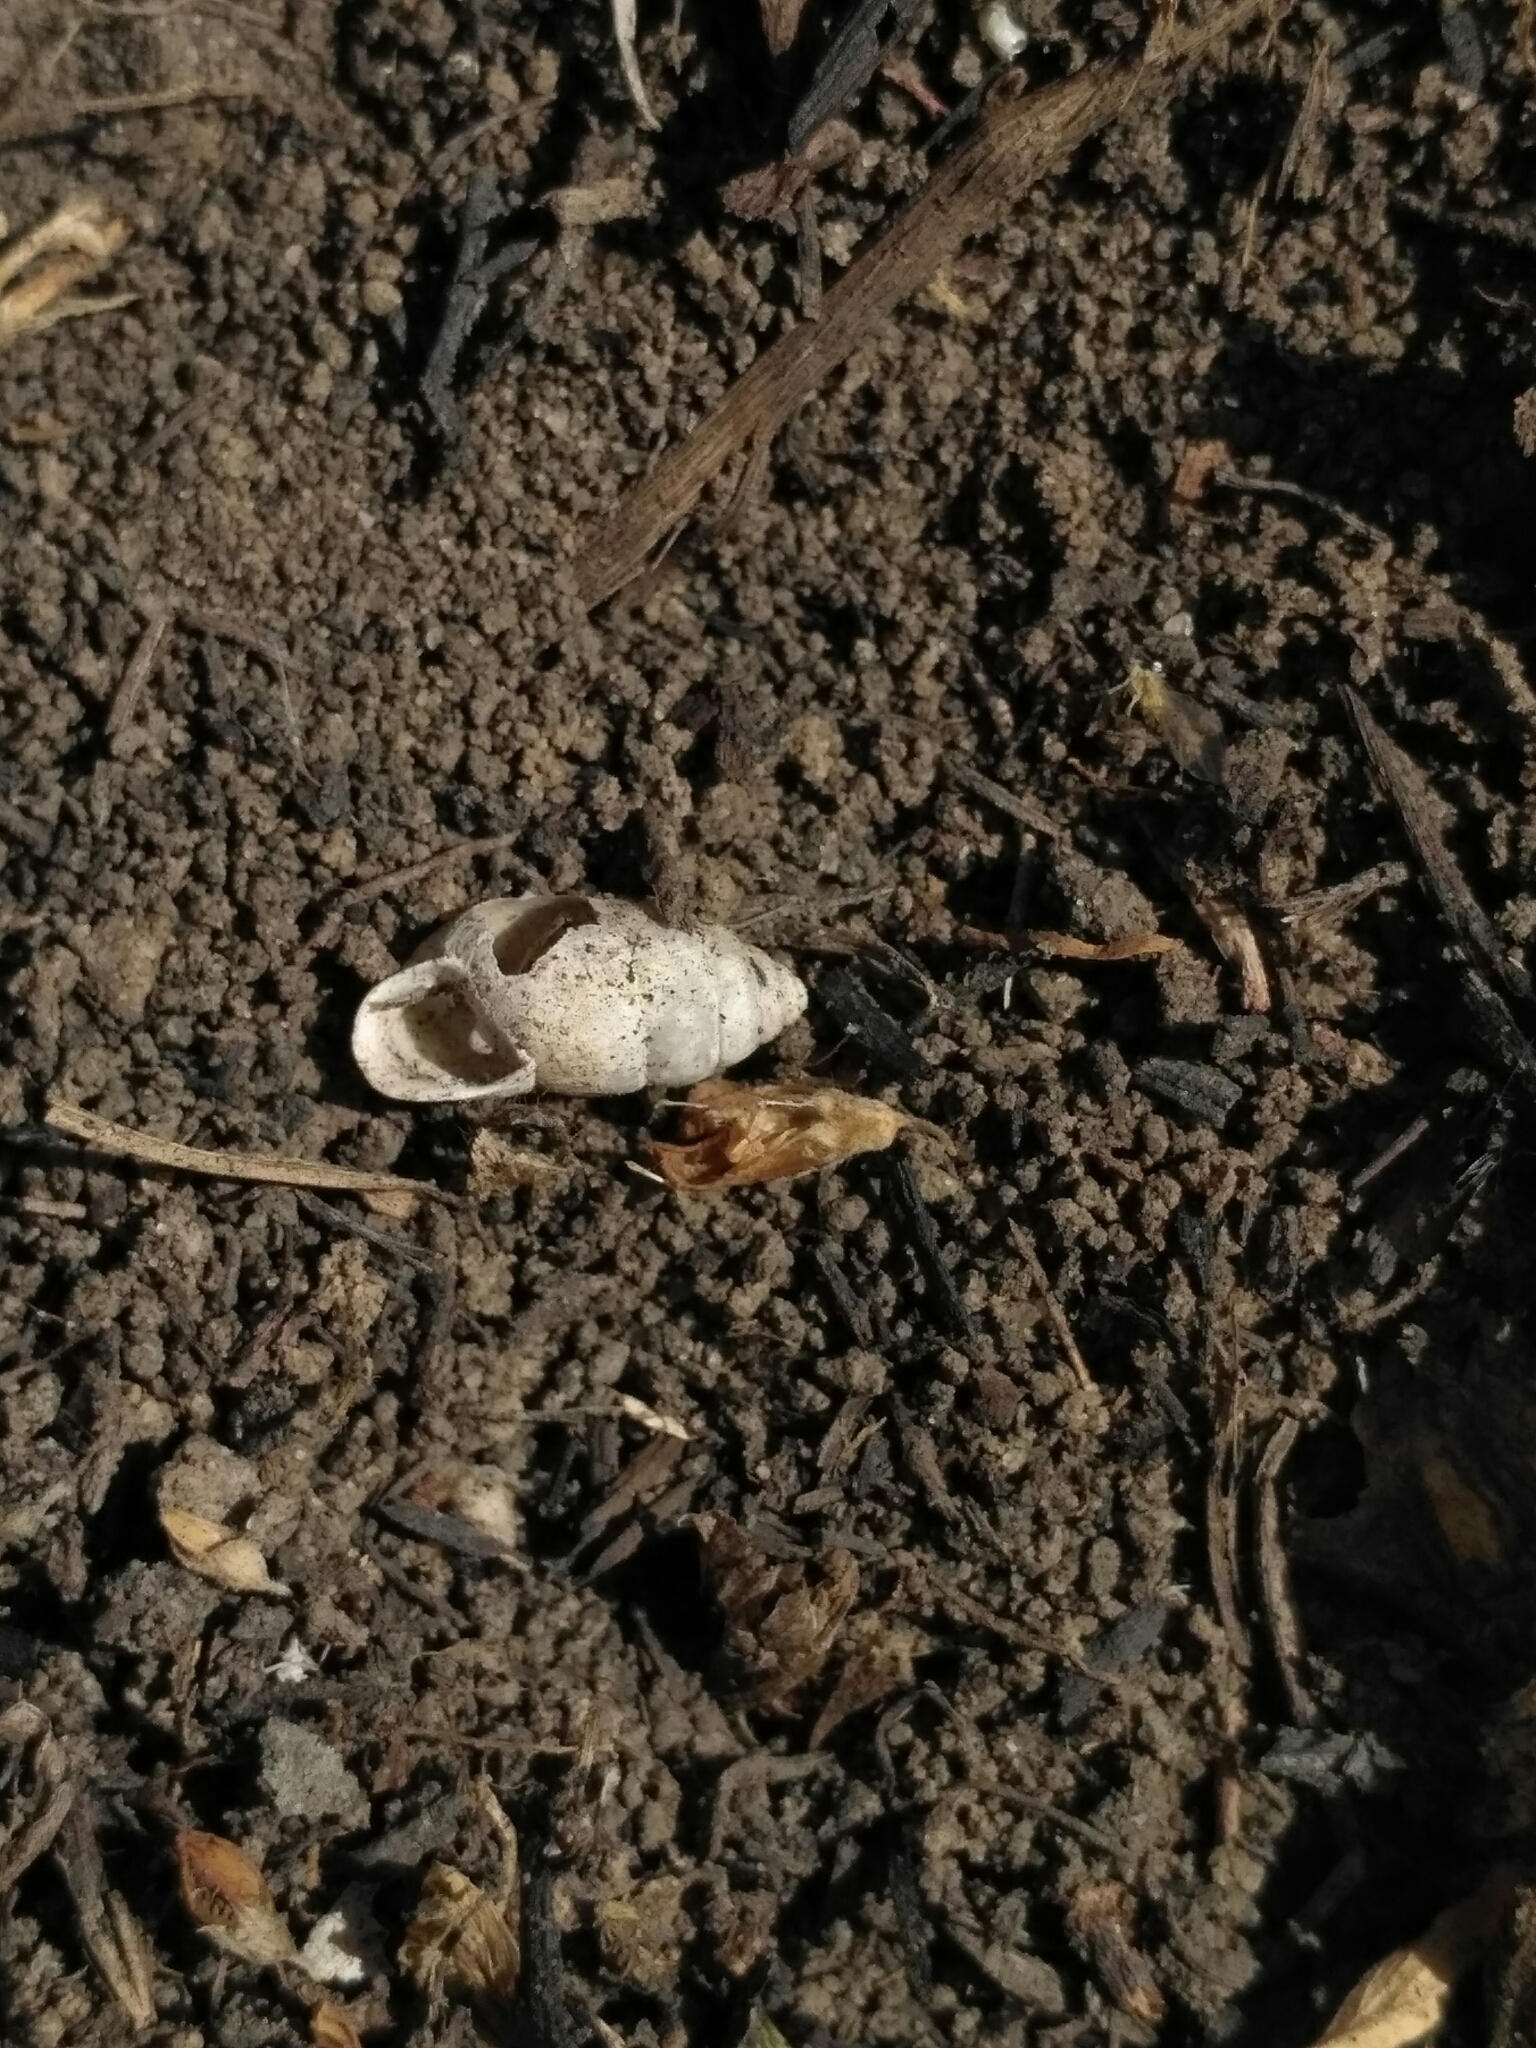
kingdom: Animalia
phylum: Mollusca
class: Gastropoda
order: Stylommatophora
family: Enidae
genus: Chondrula
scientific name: Chondrula tridens
